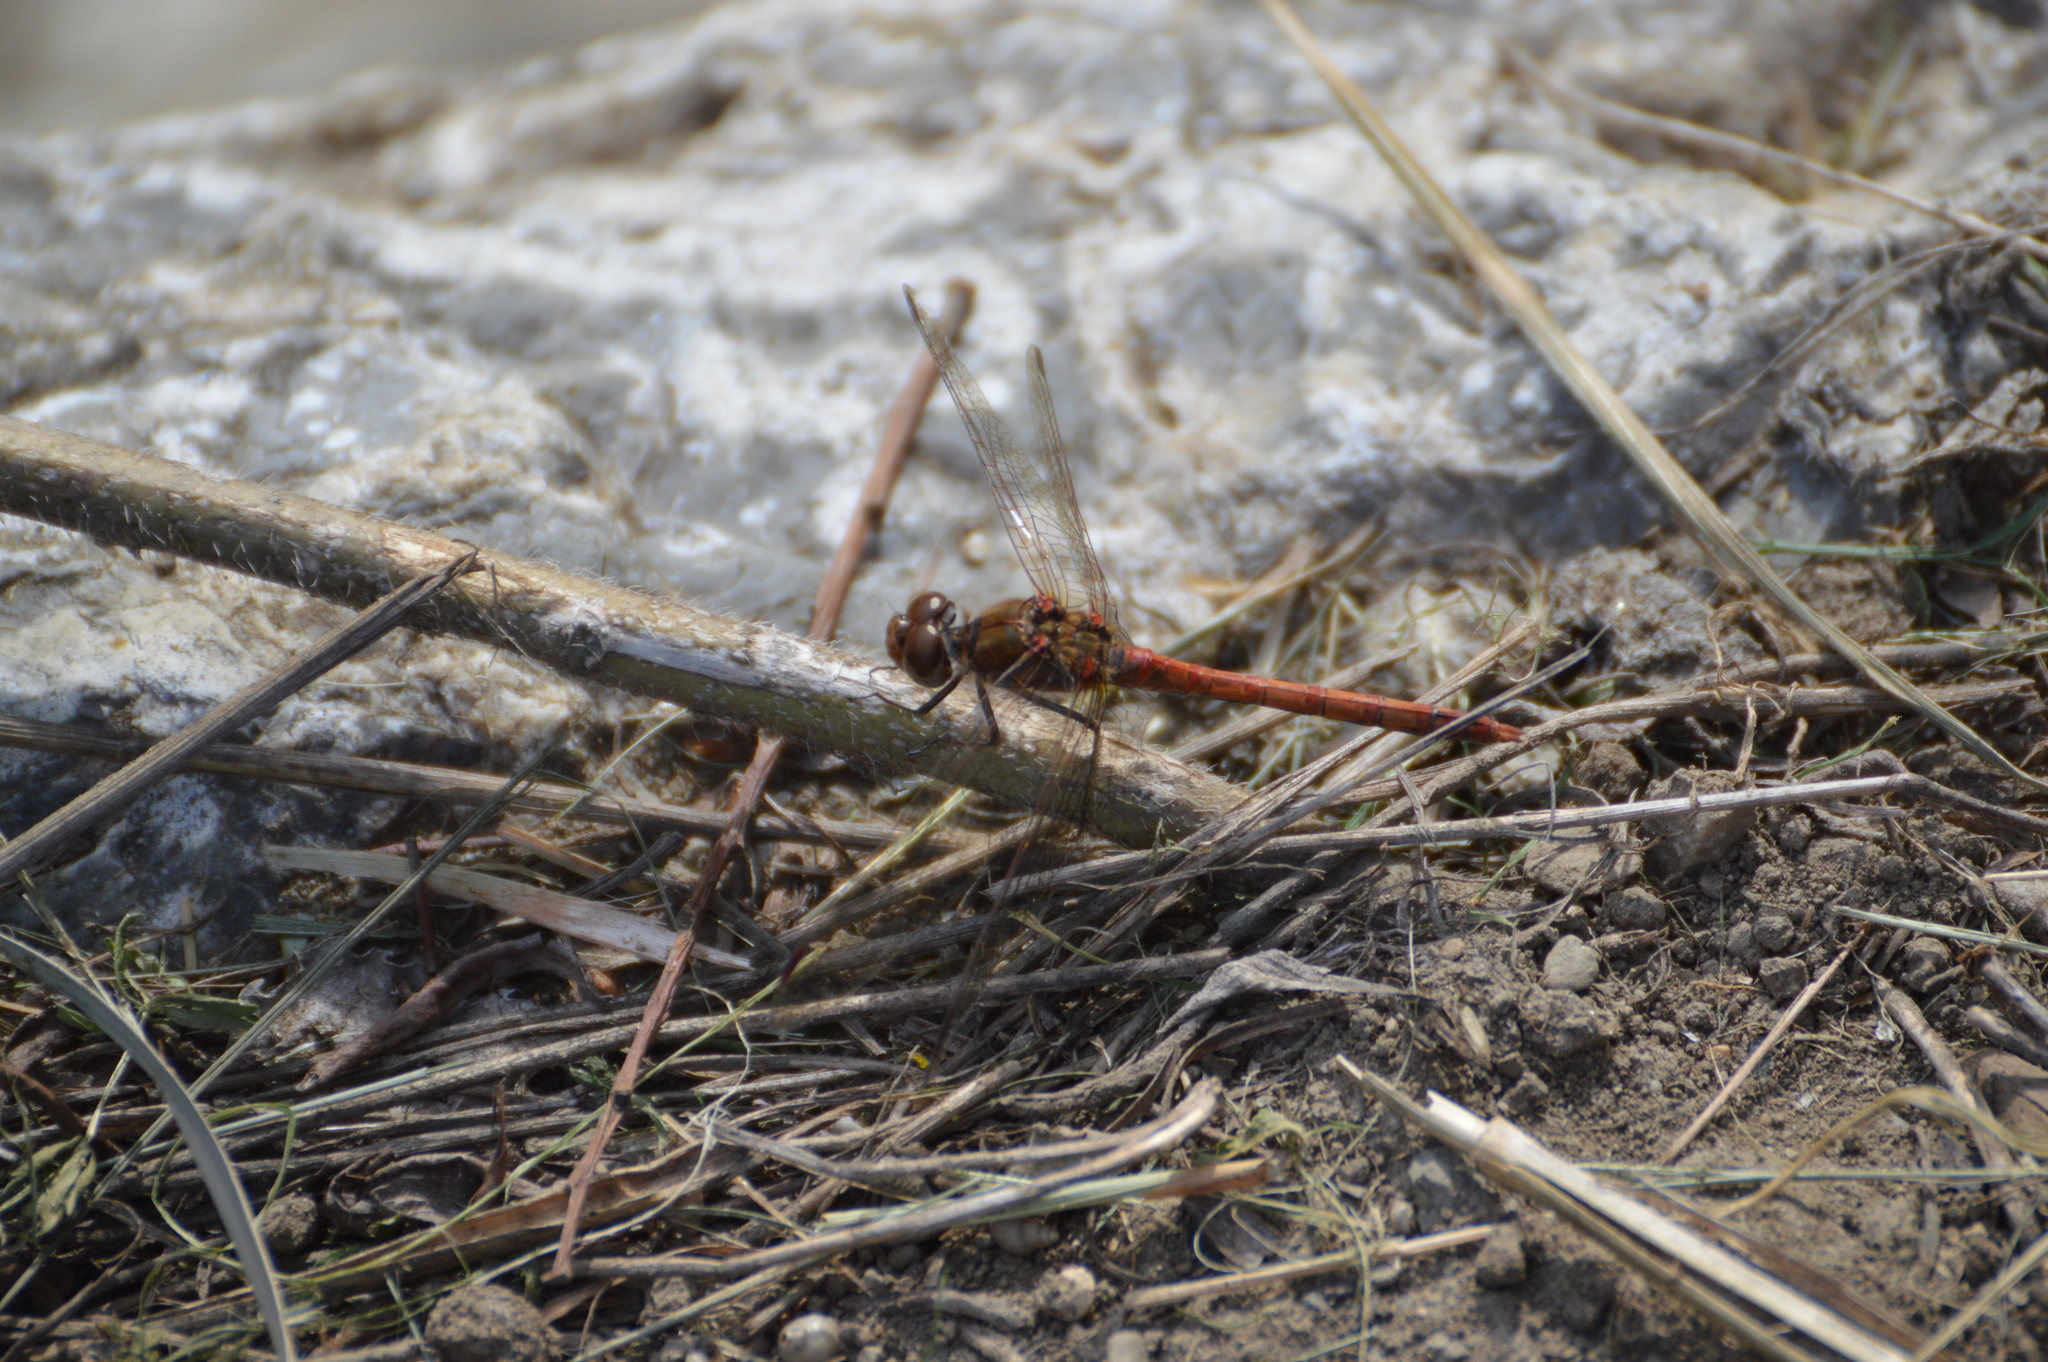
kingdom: Animalia
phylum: Arthropoda
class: Insecta
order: Odonata
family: Libellulidae
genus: Sympetrum
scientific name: Sympetrum striolatum
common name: Common darter
